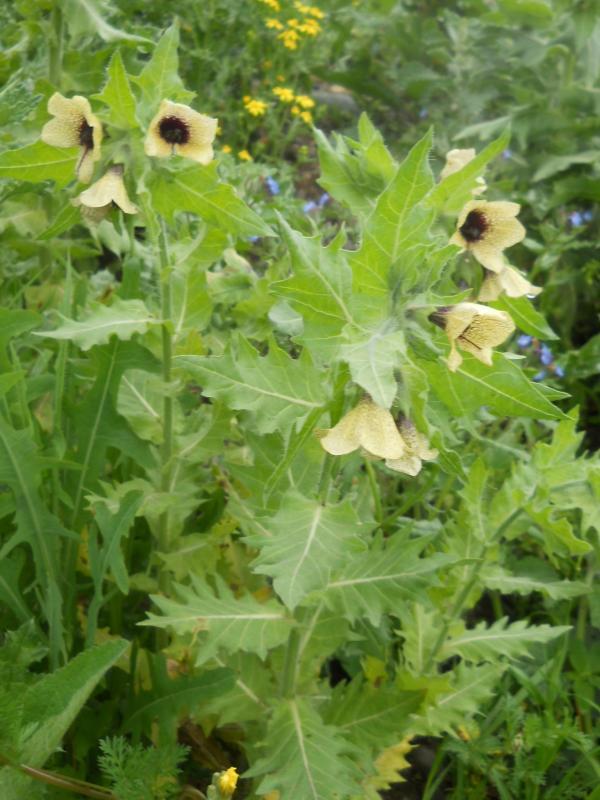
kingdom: Plantae
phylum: Tracheophyta
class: Magnoliopsida
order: Solanales
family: Solanaceae
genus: Hyoscyamus
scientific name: Hyoscyamus niger
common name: Henbane
